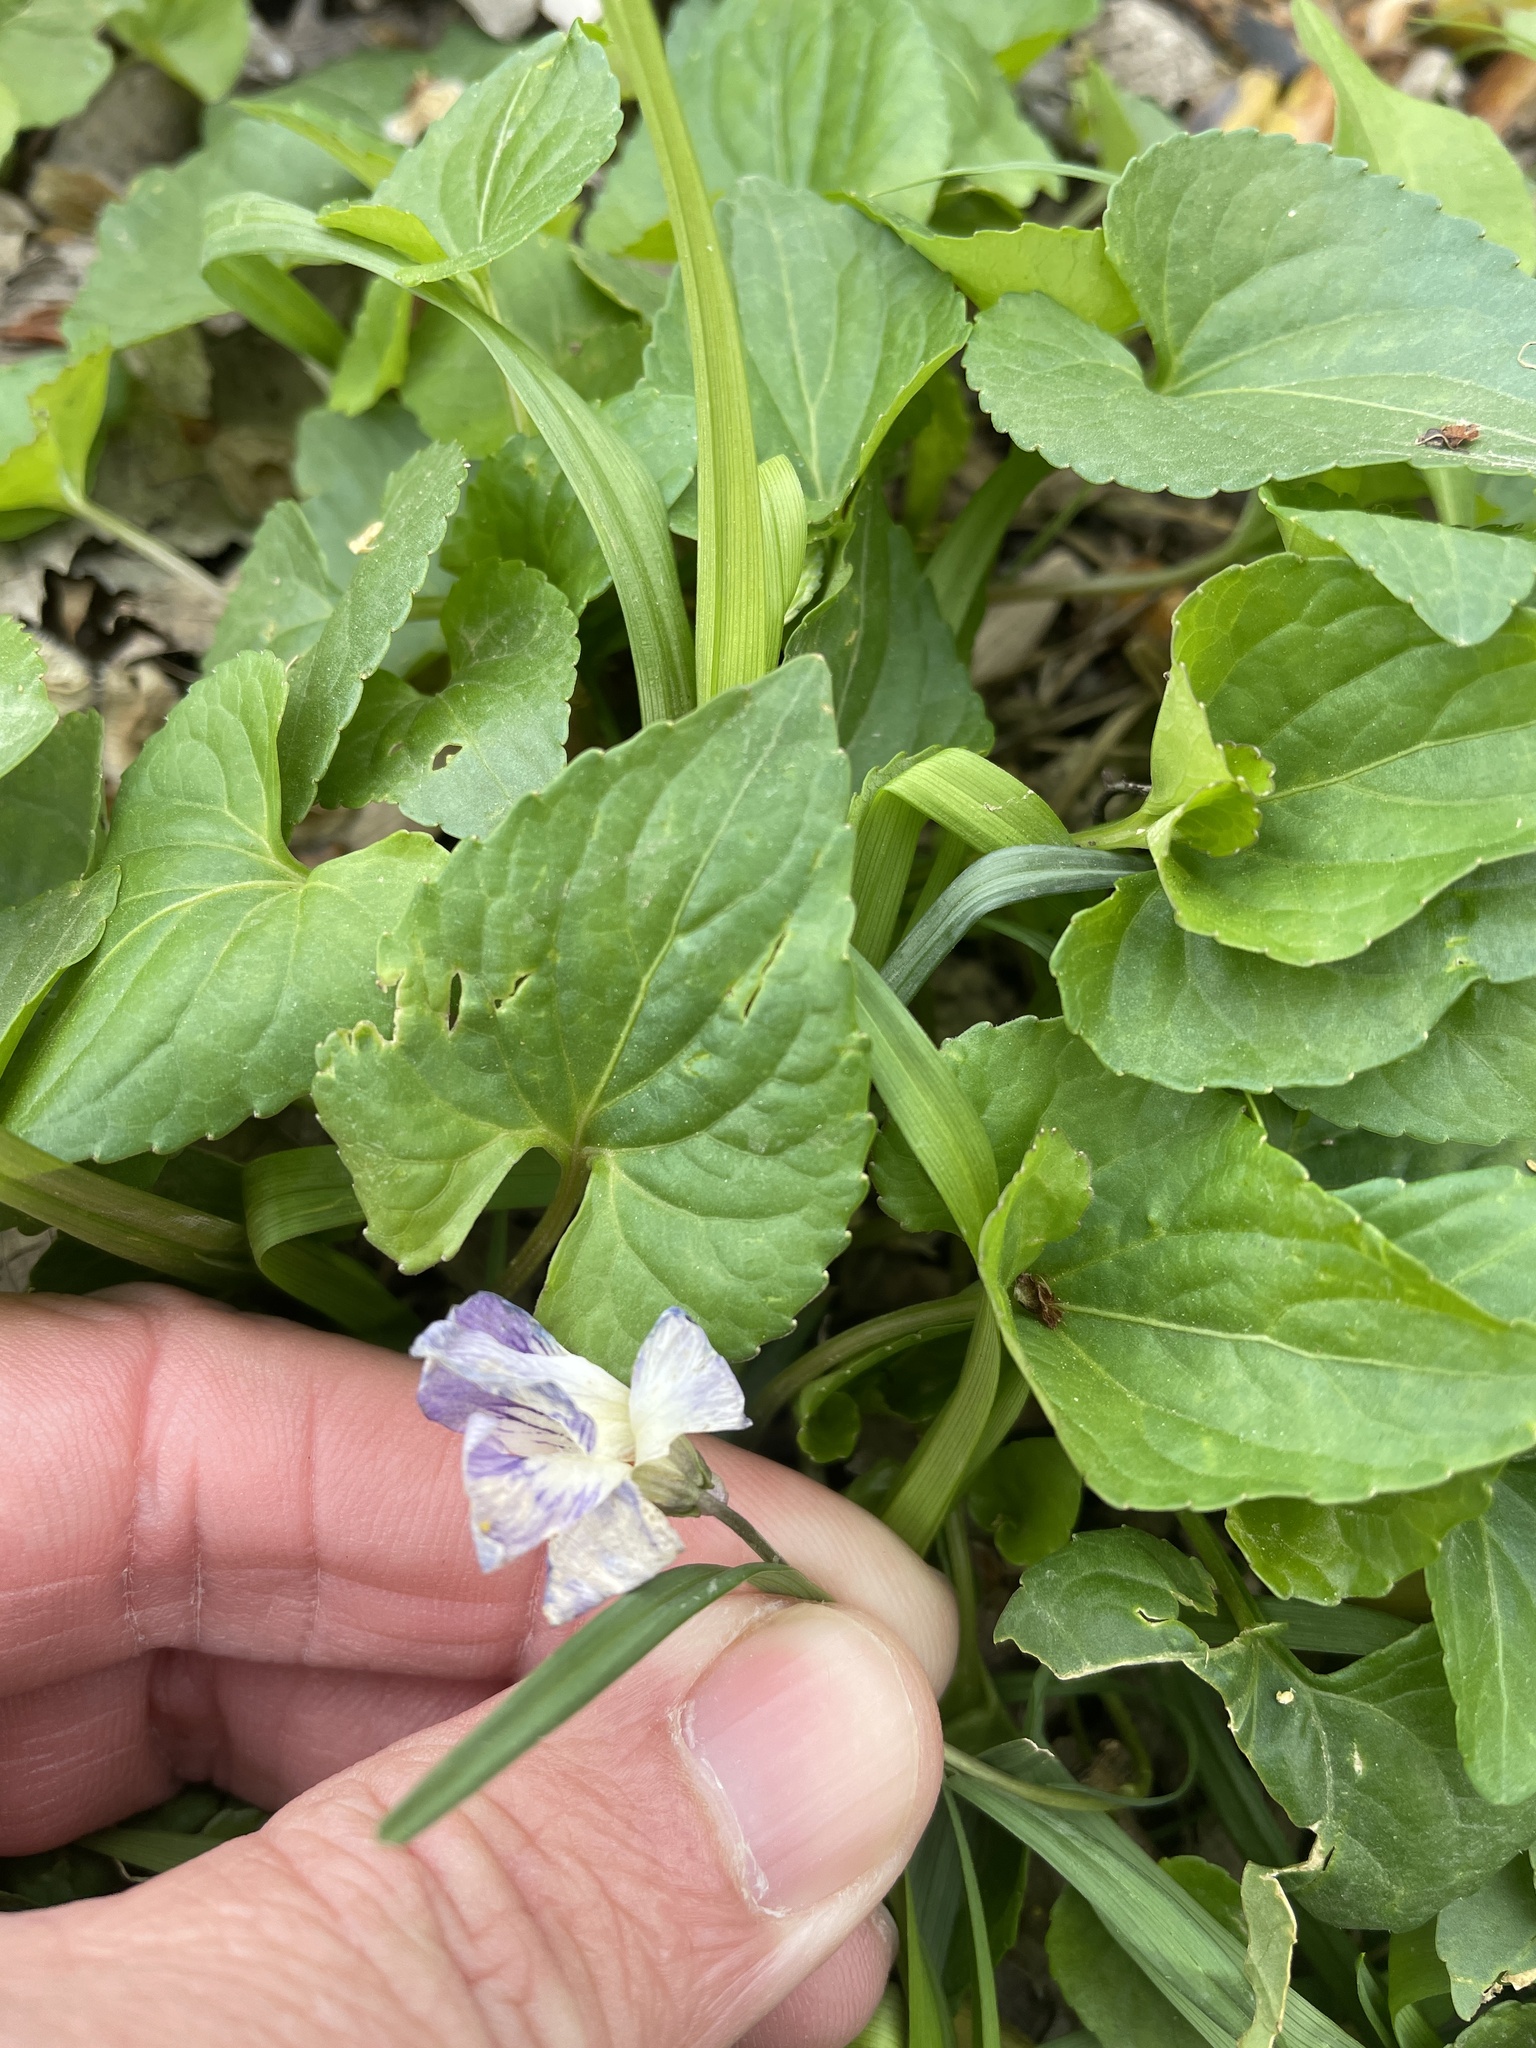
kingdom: Plantae
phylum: Tracheophyta
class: Magnoliopsida
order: Malpighiales
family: Violaceae
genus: Viola
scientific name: Viola missouriensis
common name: Missouri violet
